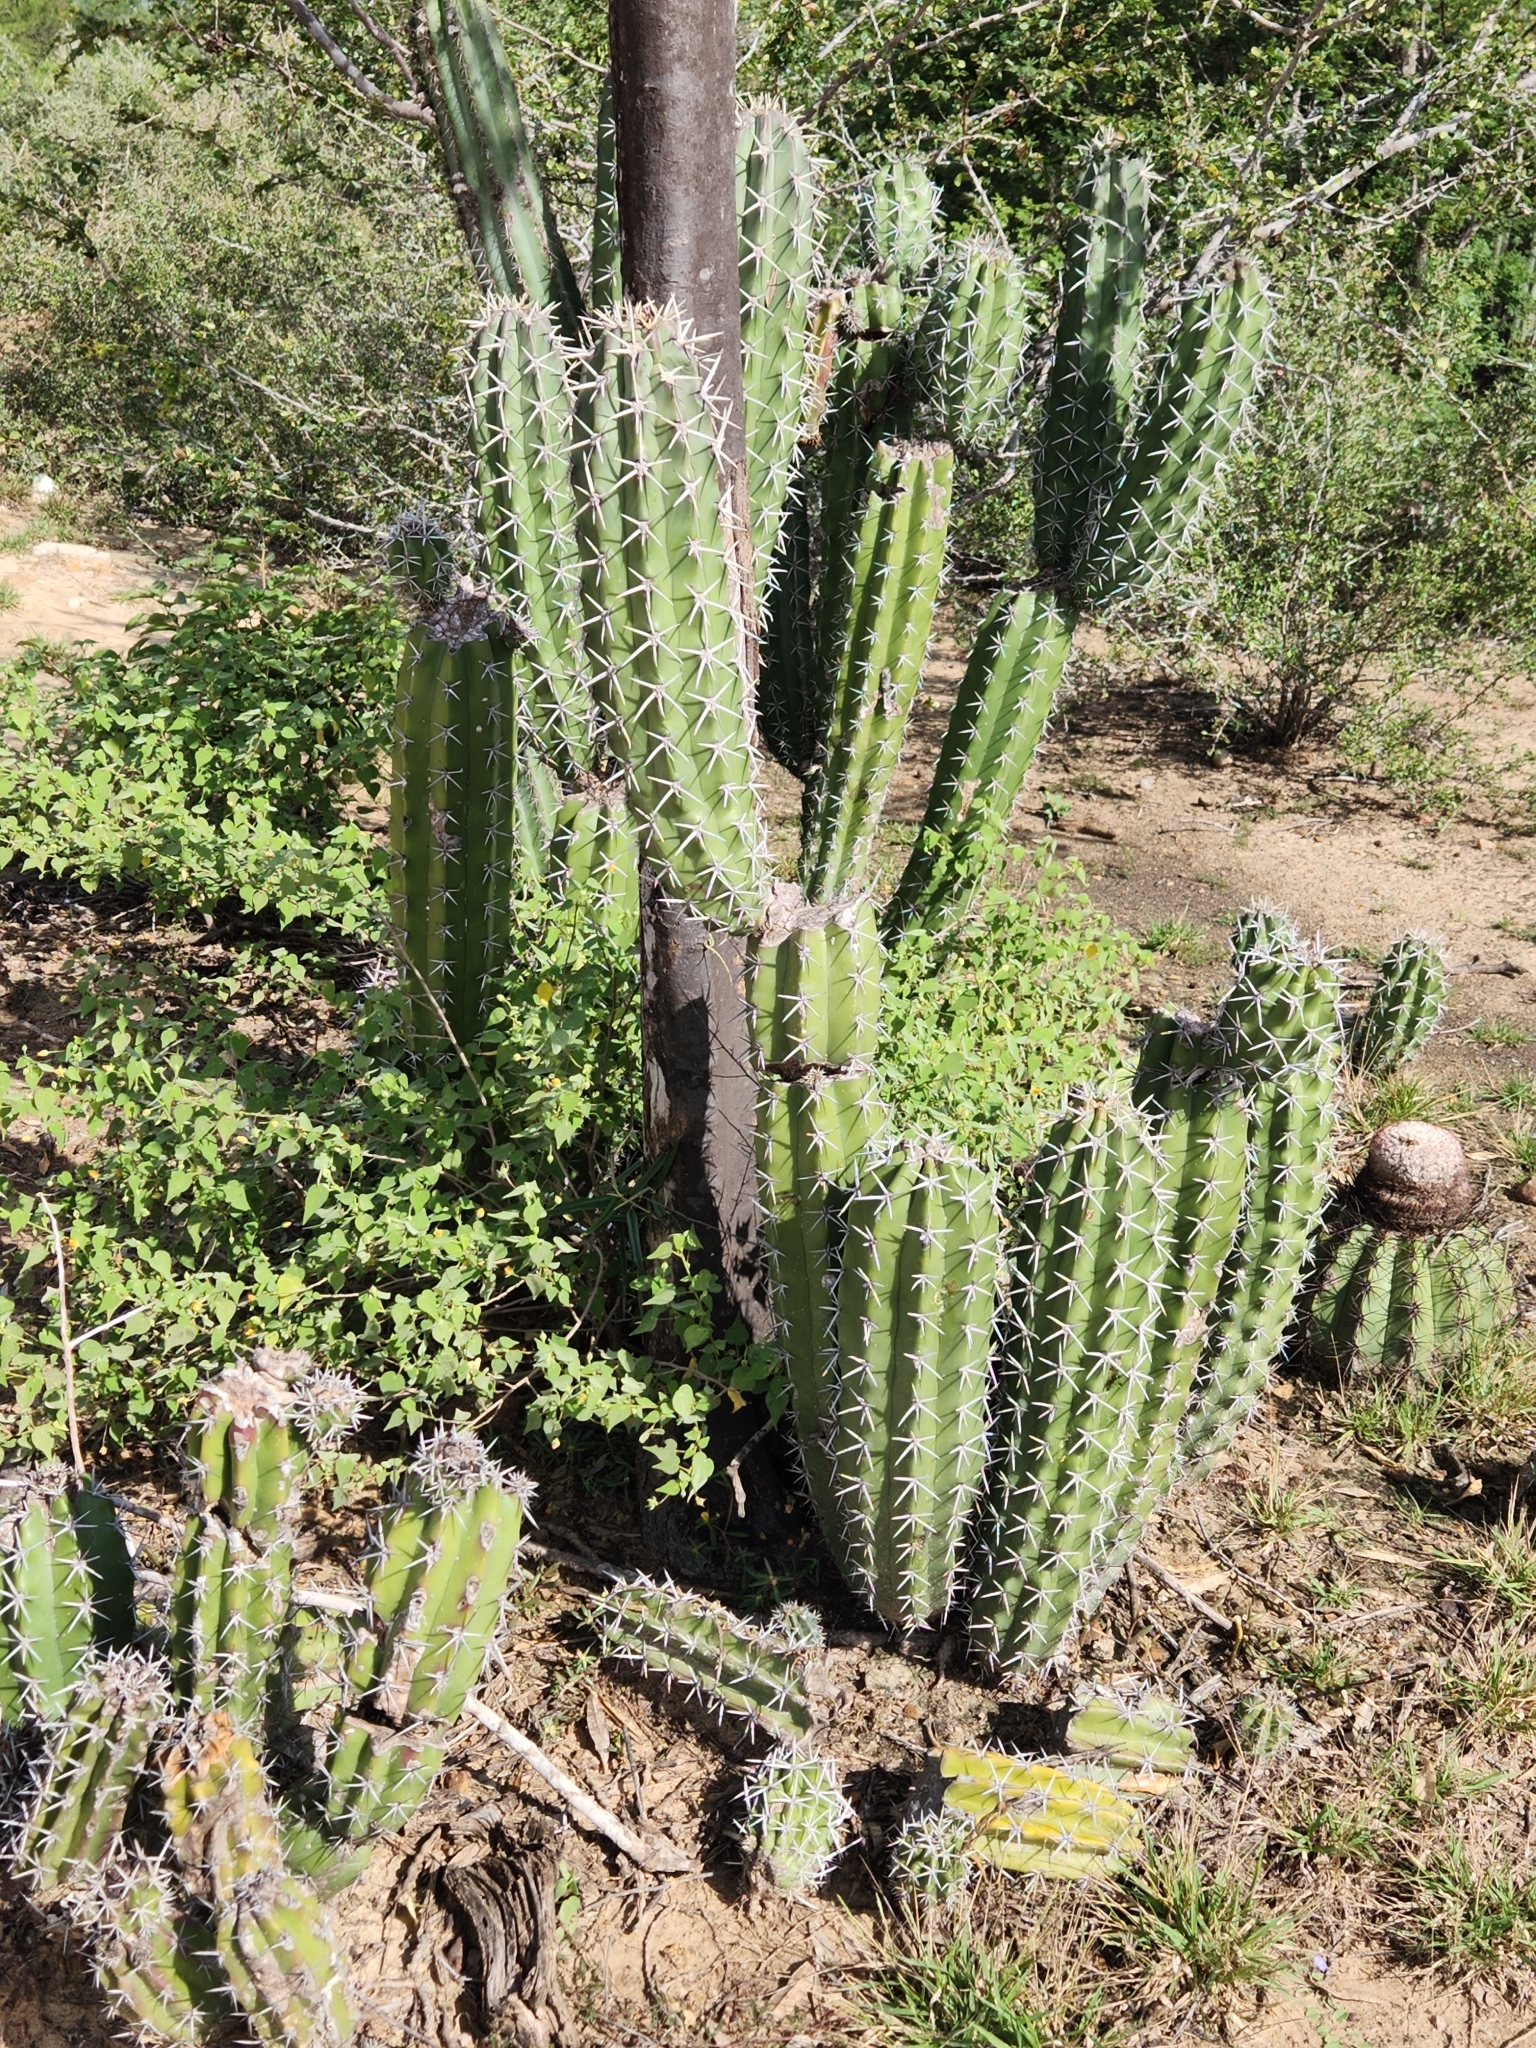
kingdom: Plantae
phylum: Tracheophyta
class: Magnoliopsida
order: Caryophyllales
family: Cactaceae
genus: Stenocereus
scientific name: Stenocereus griseus
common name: Tall candelabra cactus
